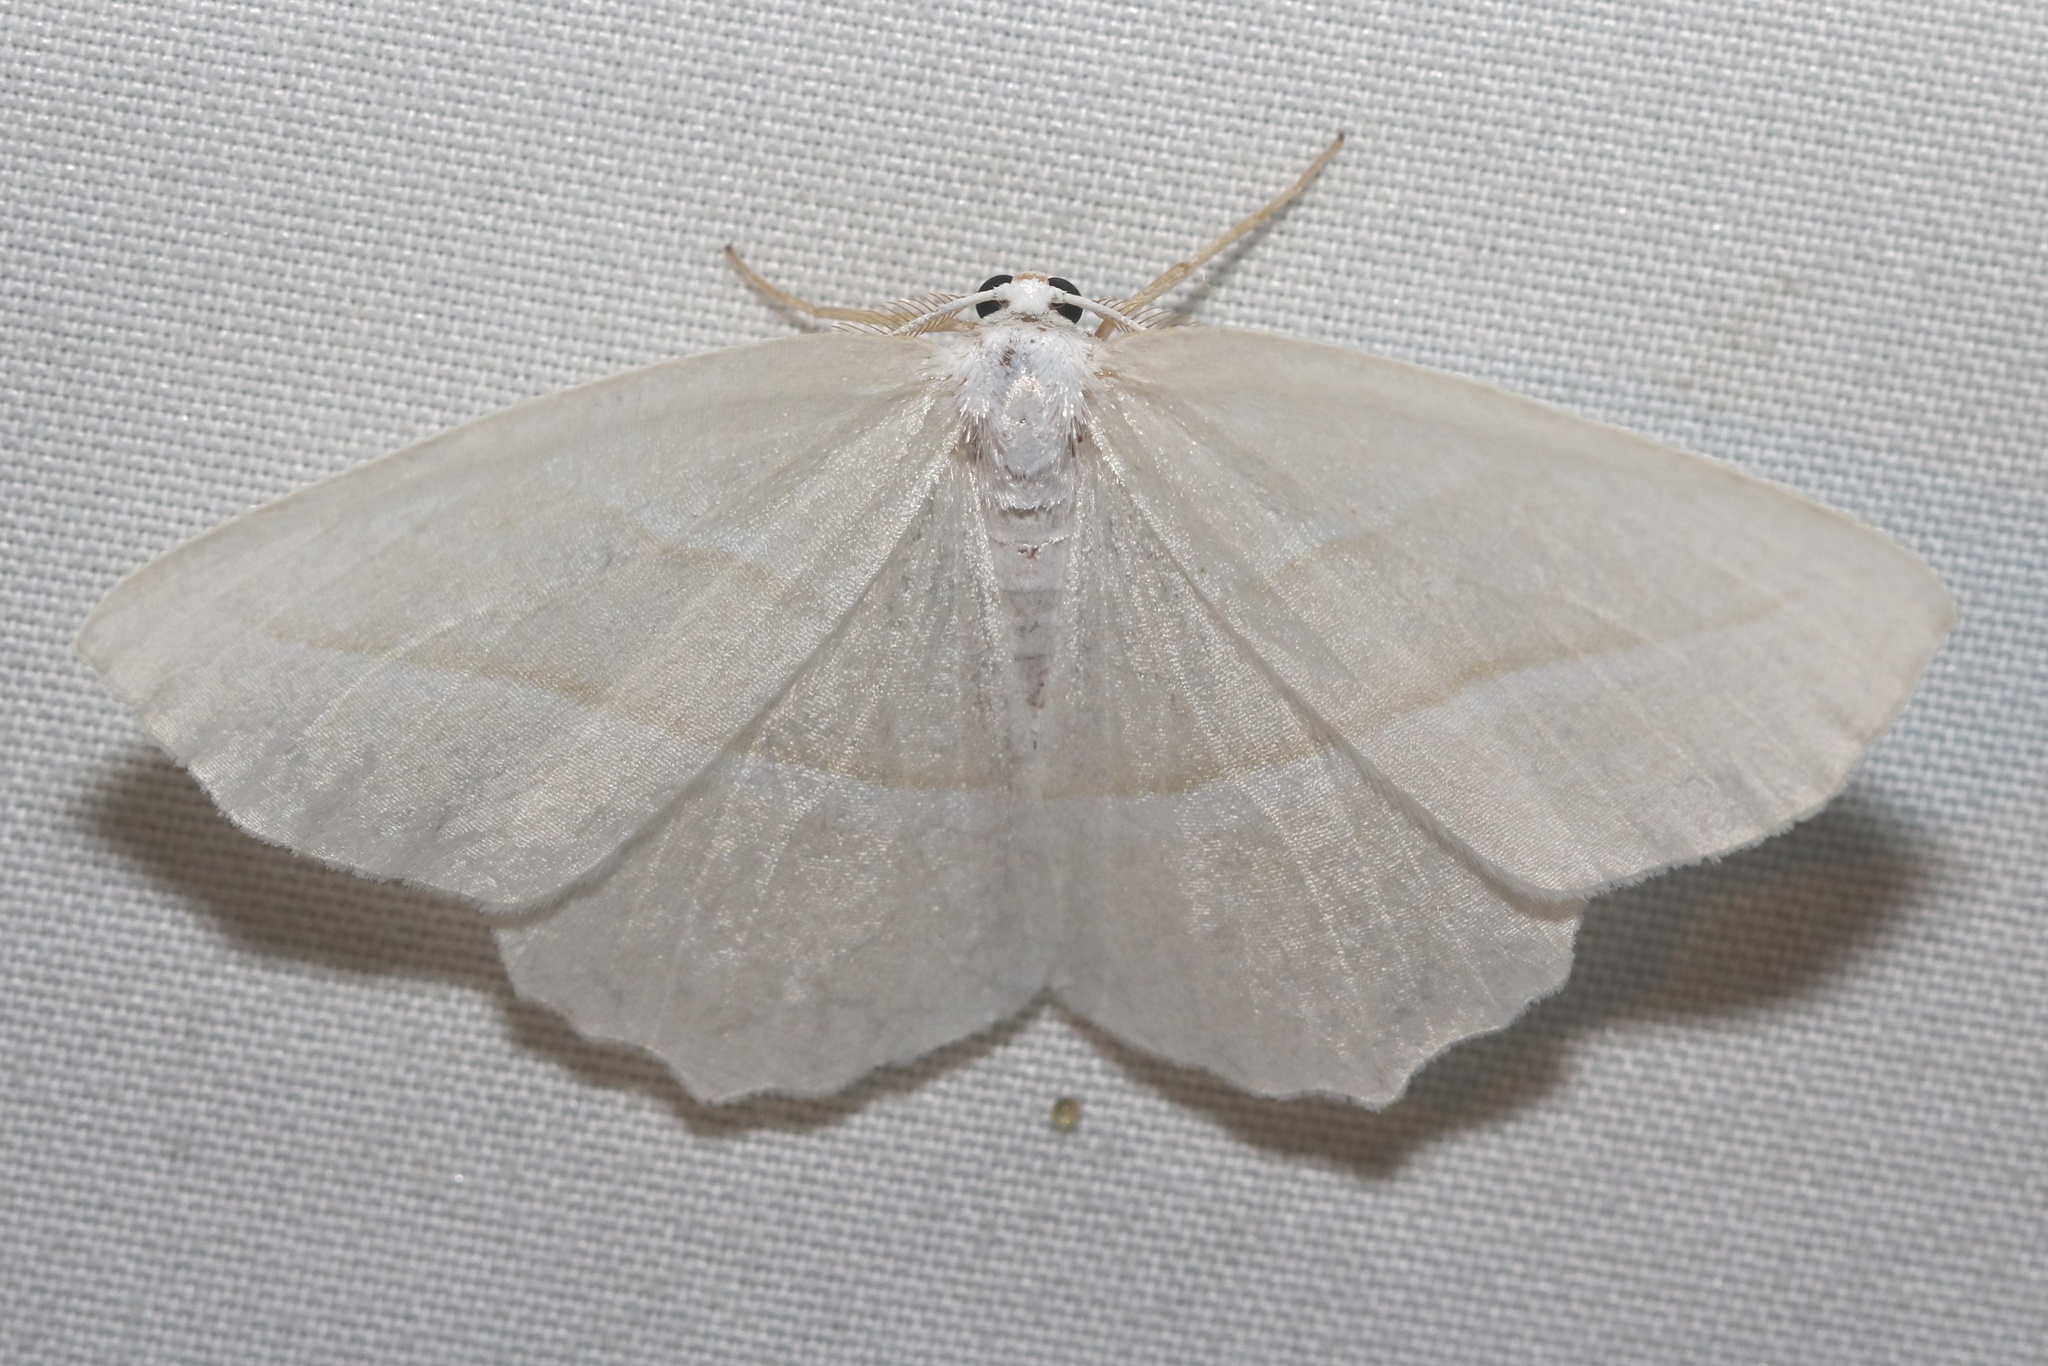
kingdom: Animalia
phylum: Arthropoda
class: Insecta
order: Lepidoptera
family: Geometridae
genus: Campaea
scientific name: Campaea perlata
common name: Fringed looper
